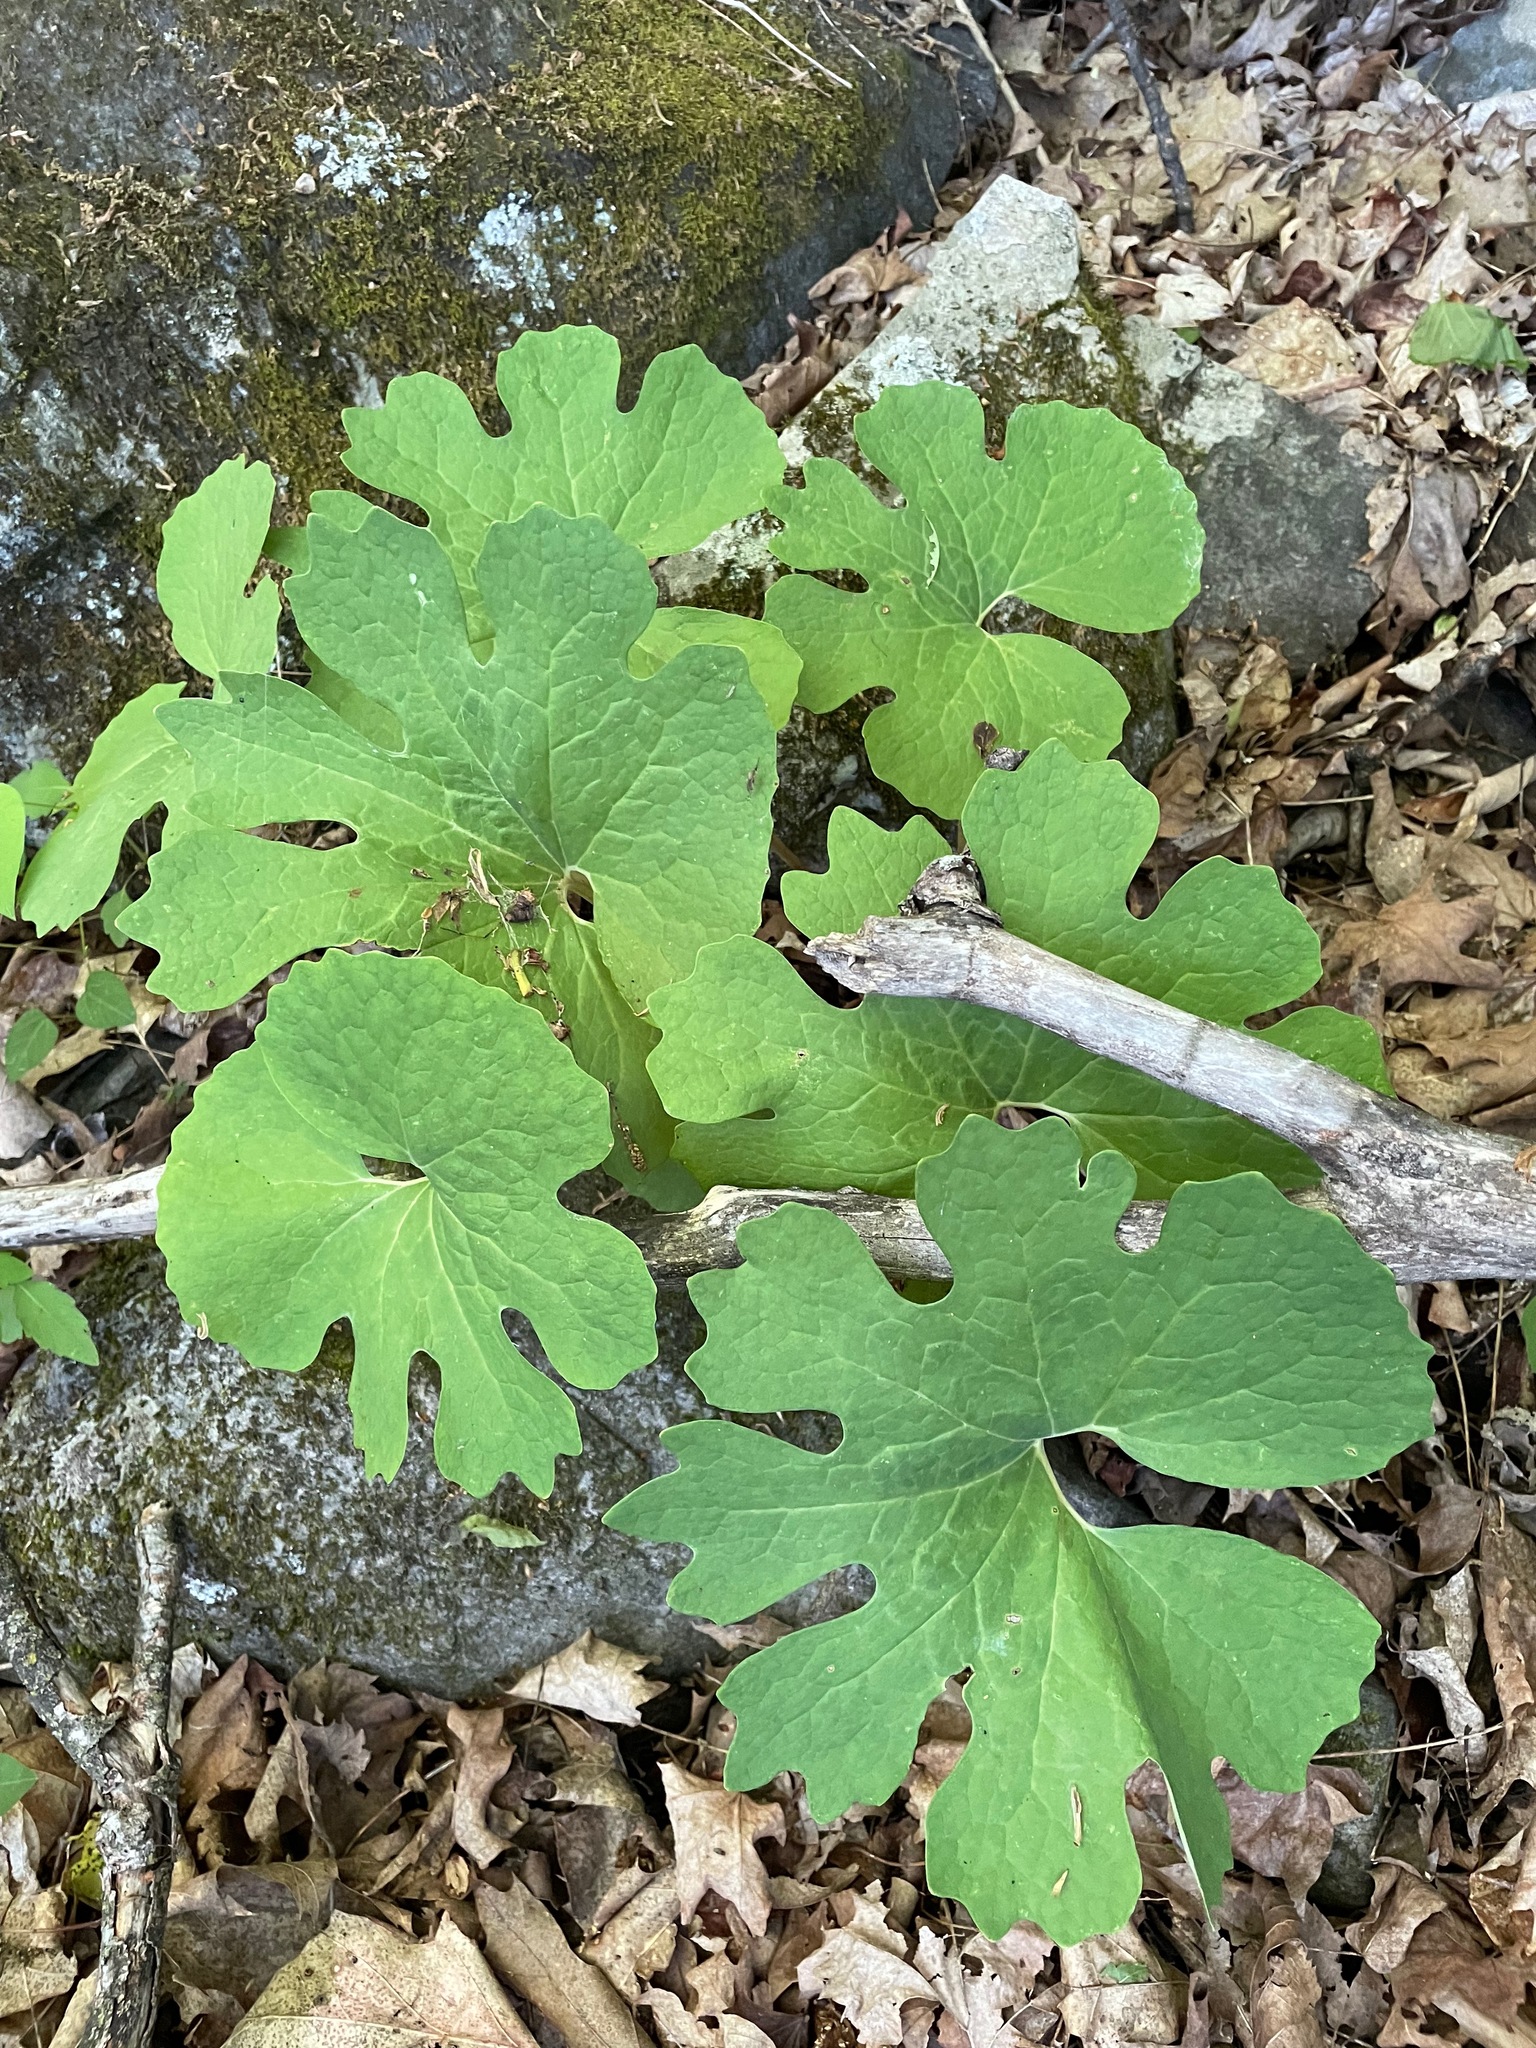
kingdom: Plantae
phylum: Tracheophyta
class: Magnoliopsida
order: Ranunculales
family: Papaveraceae
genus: Sanguinaria
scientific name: Sanguinaria canadensis
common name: Bloodroot
